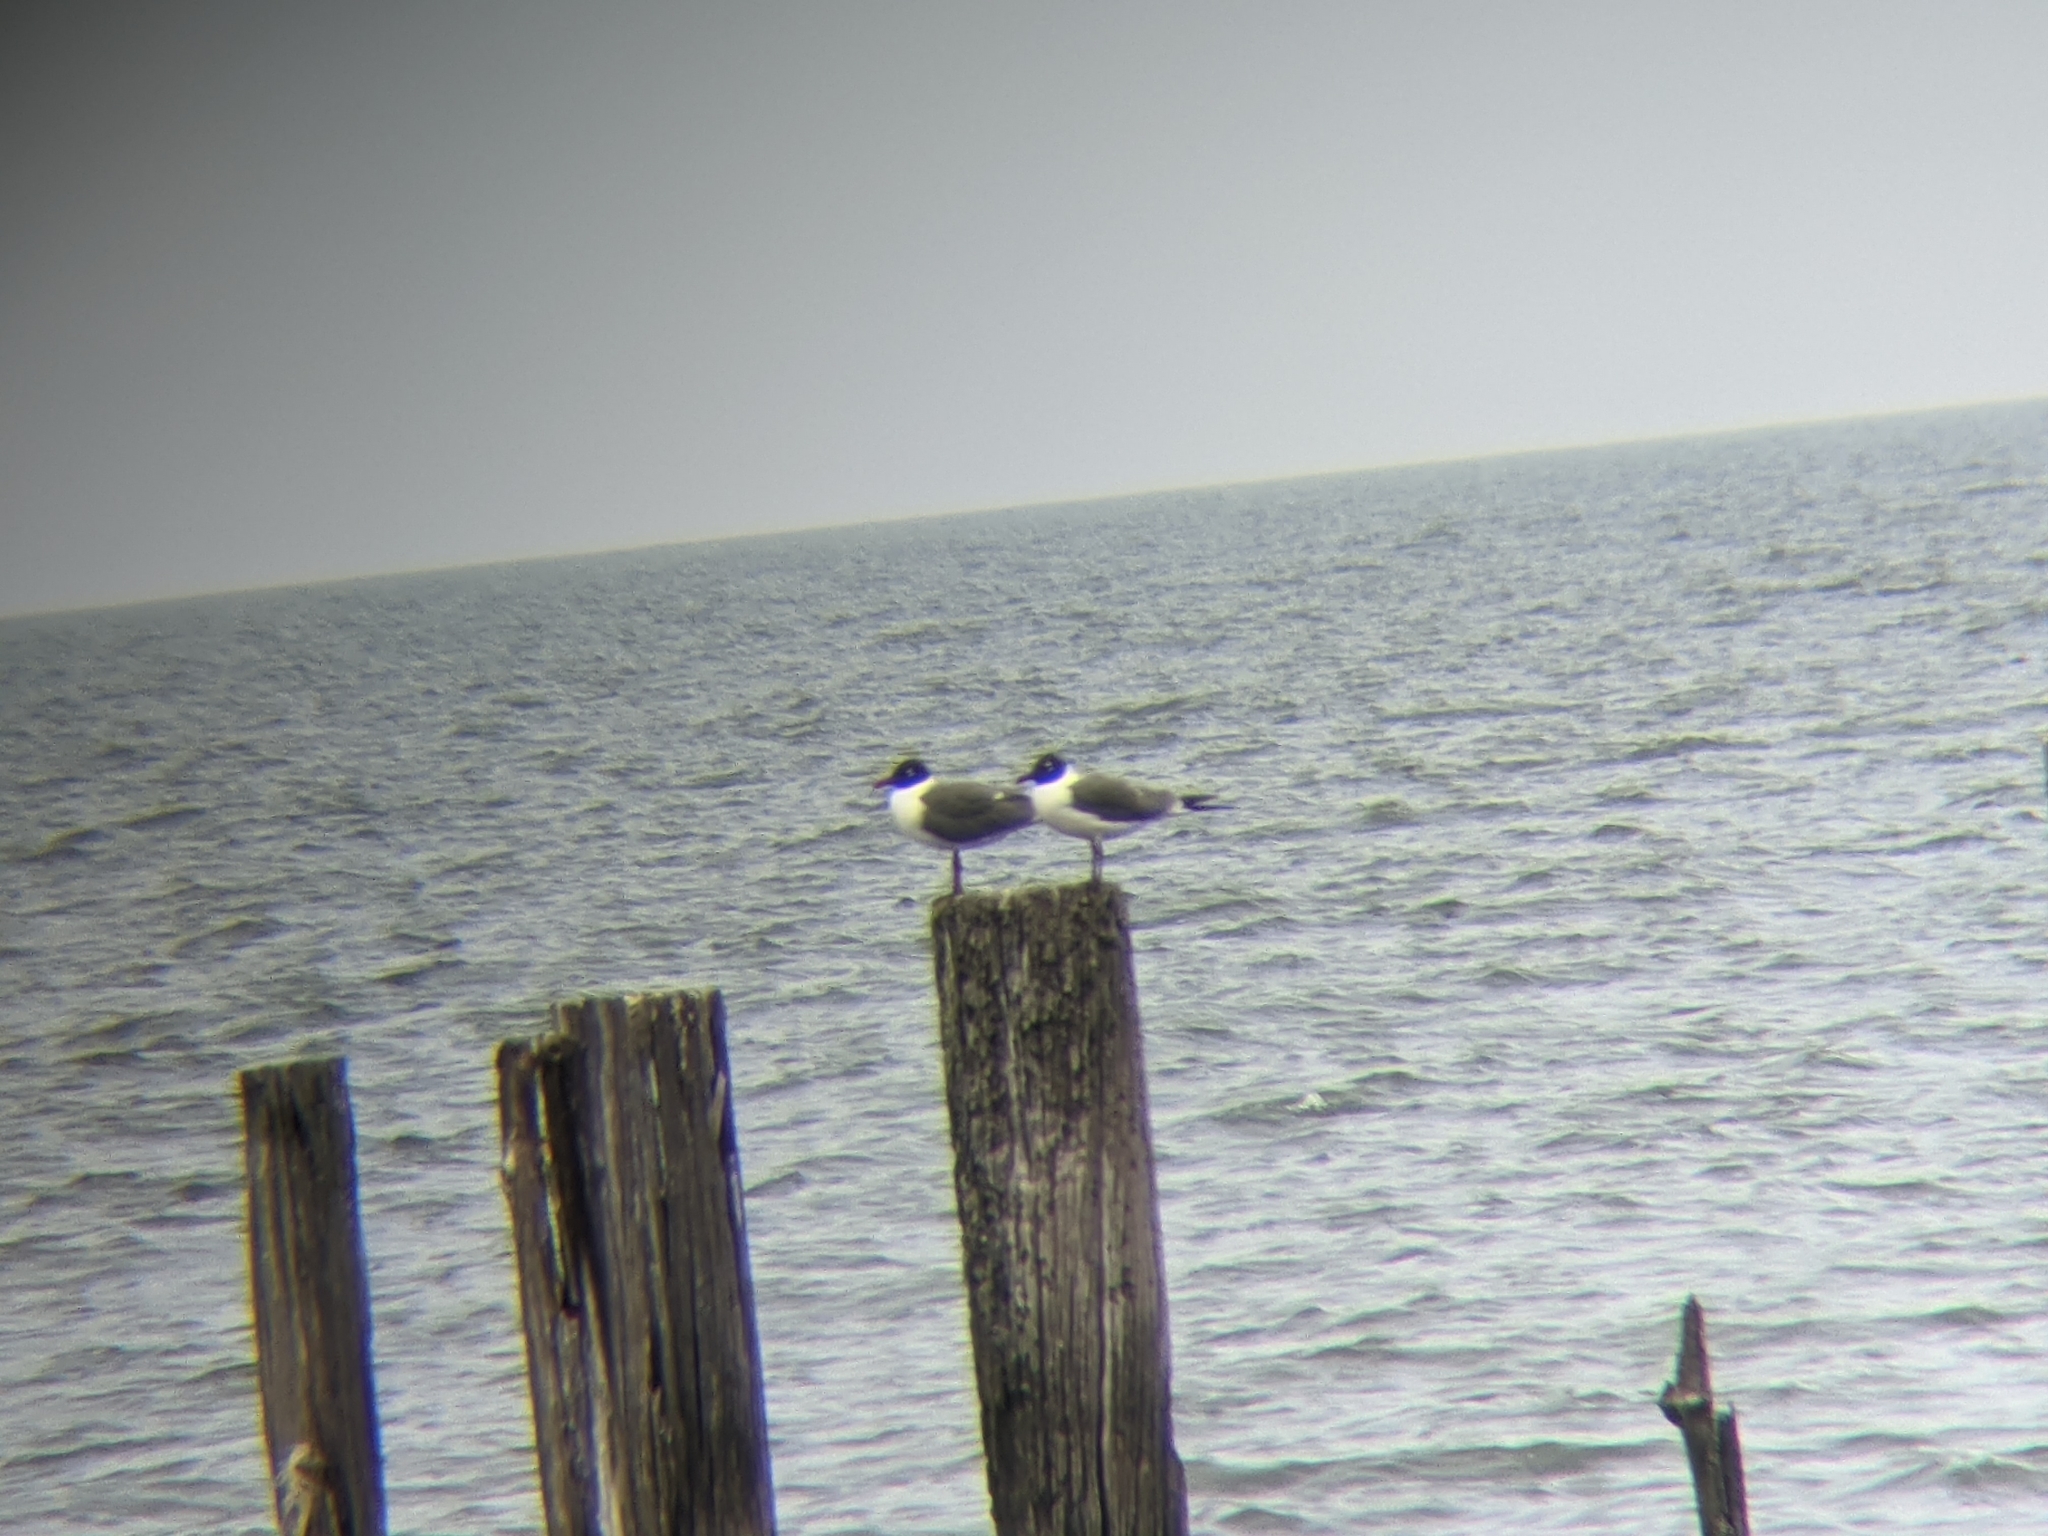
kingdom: Animalia
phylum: Chordata
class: Aves
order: Charadriiformes
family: Laridae
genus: Leucophaeus
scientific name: Leucophaeus atricilla
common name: Laughing gull
